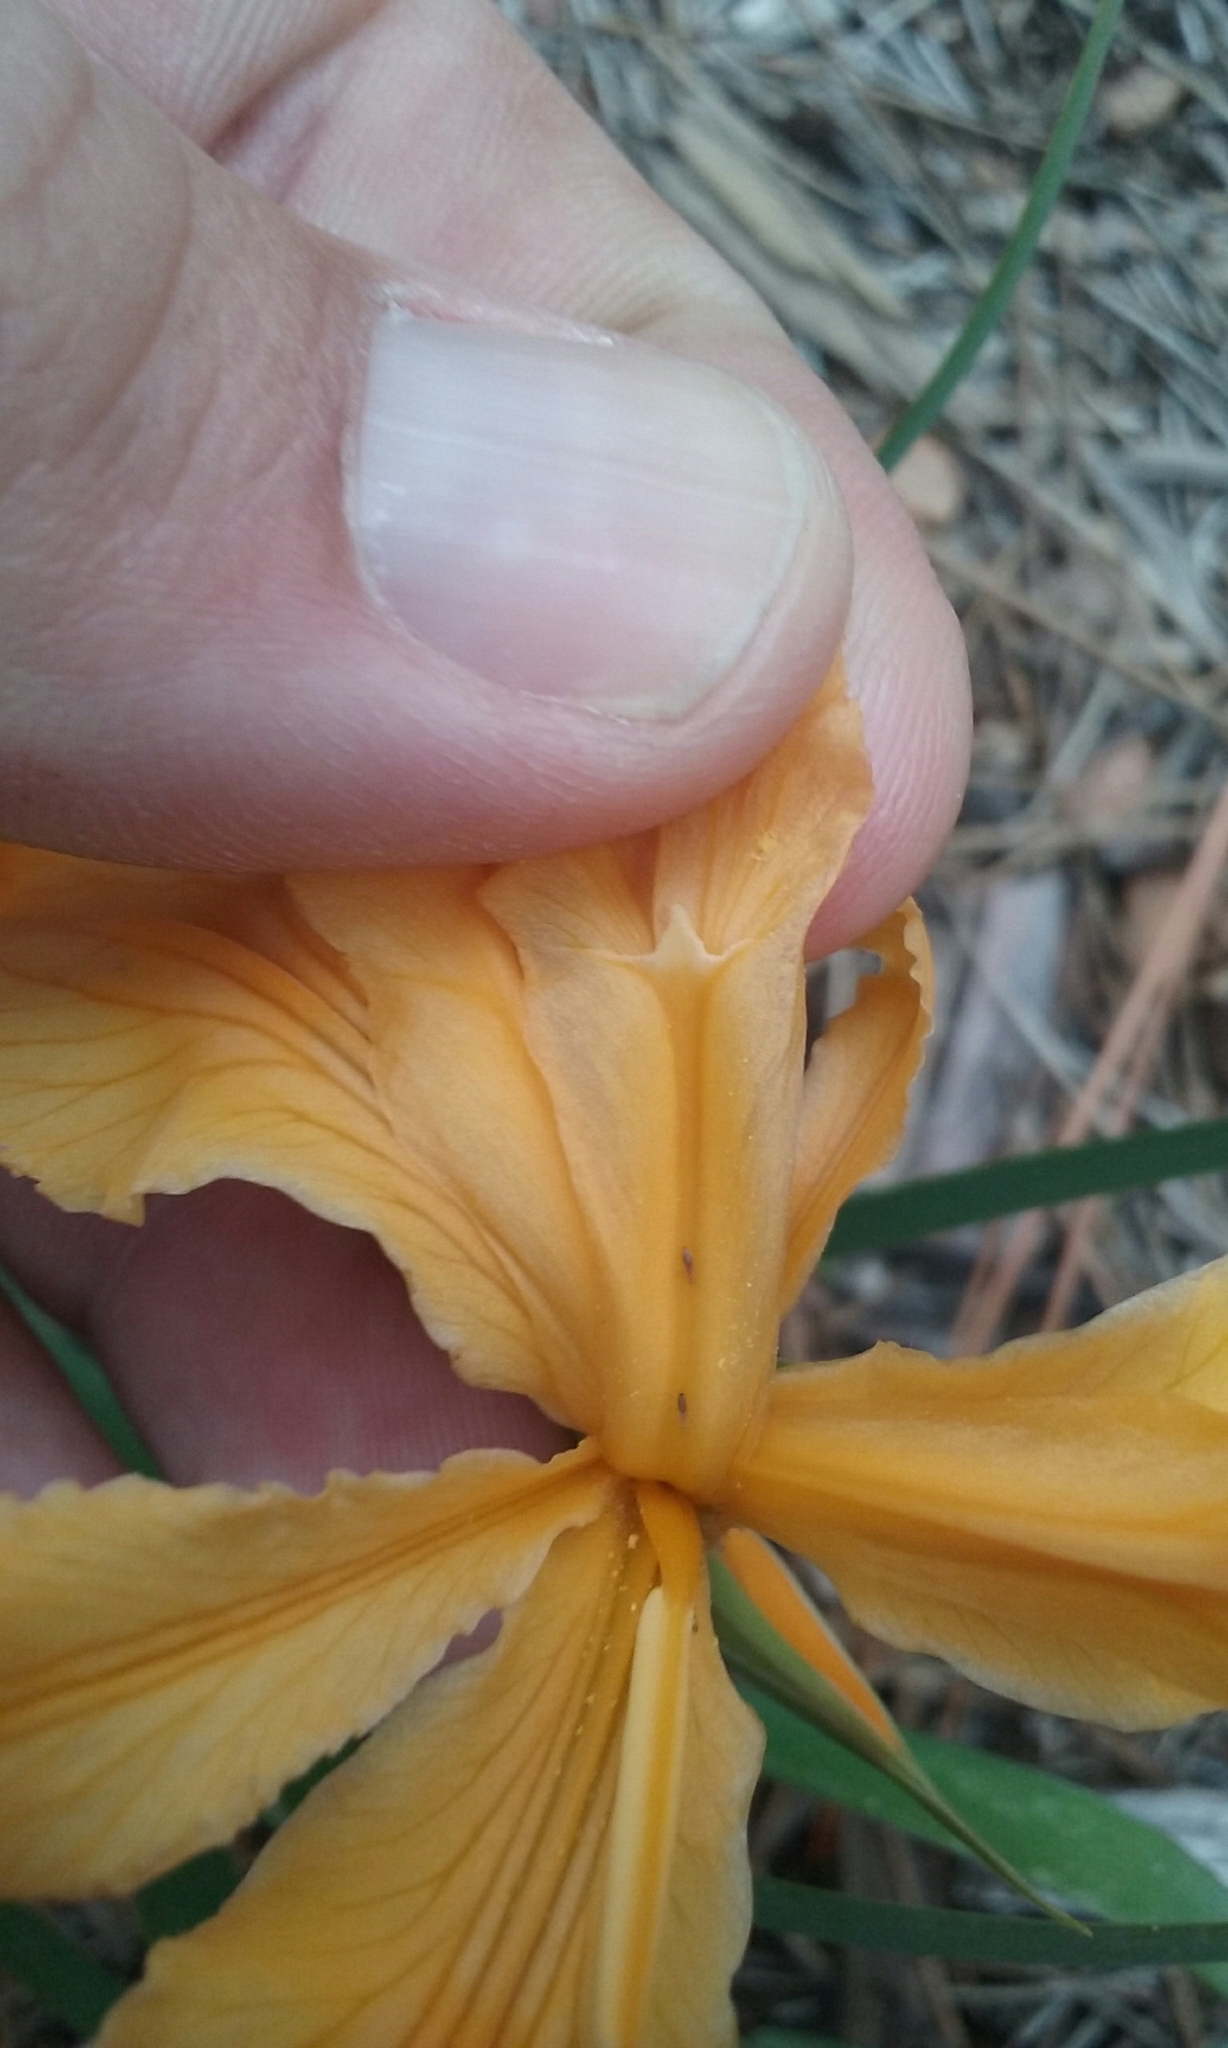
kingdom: Plantae
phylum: Tracheophyta
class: Liliopsida
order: Asparagales
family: Iridaceae
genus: Iris
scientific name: Iris hartwegii
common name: Sierra iris
